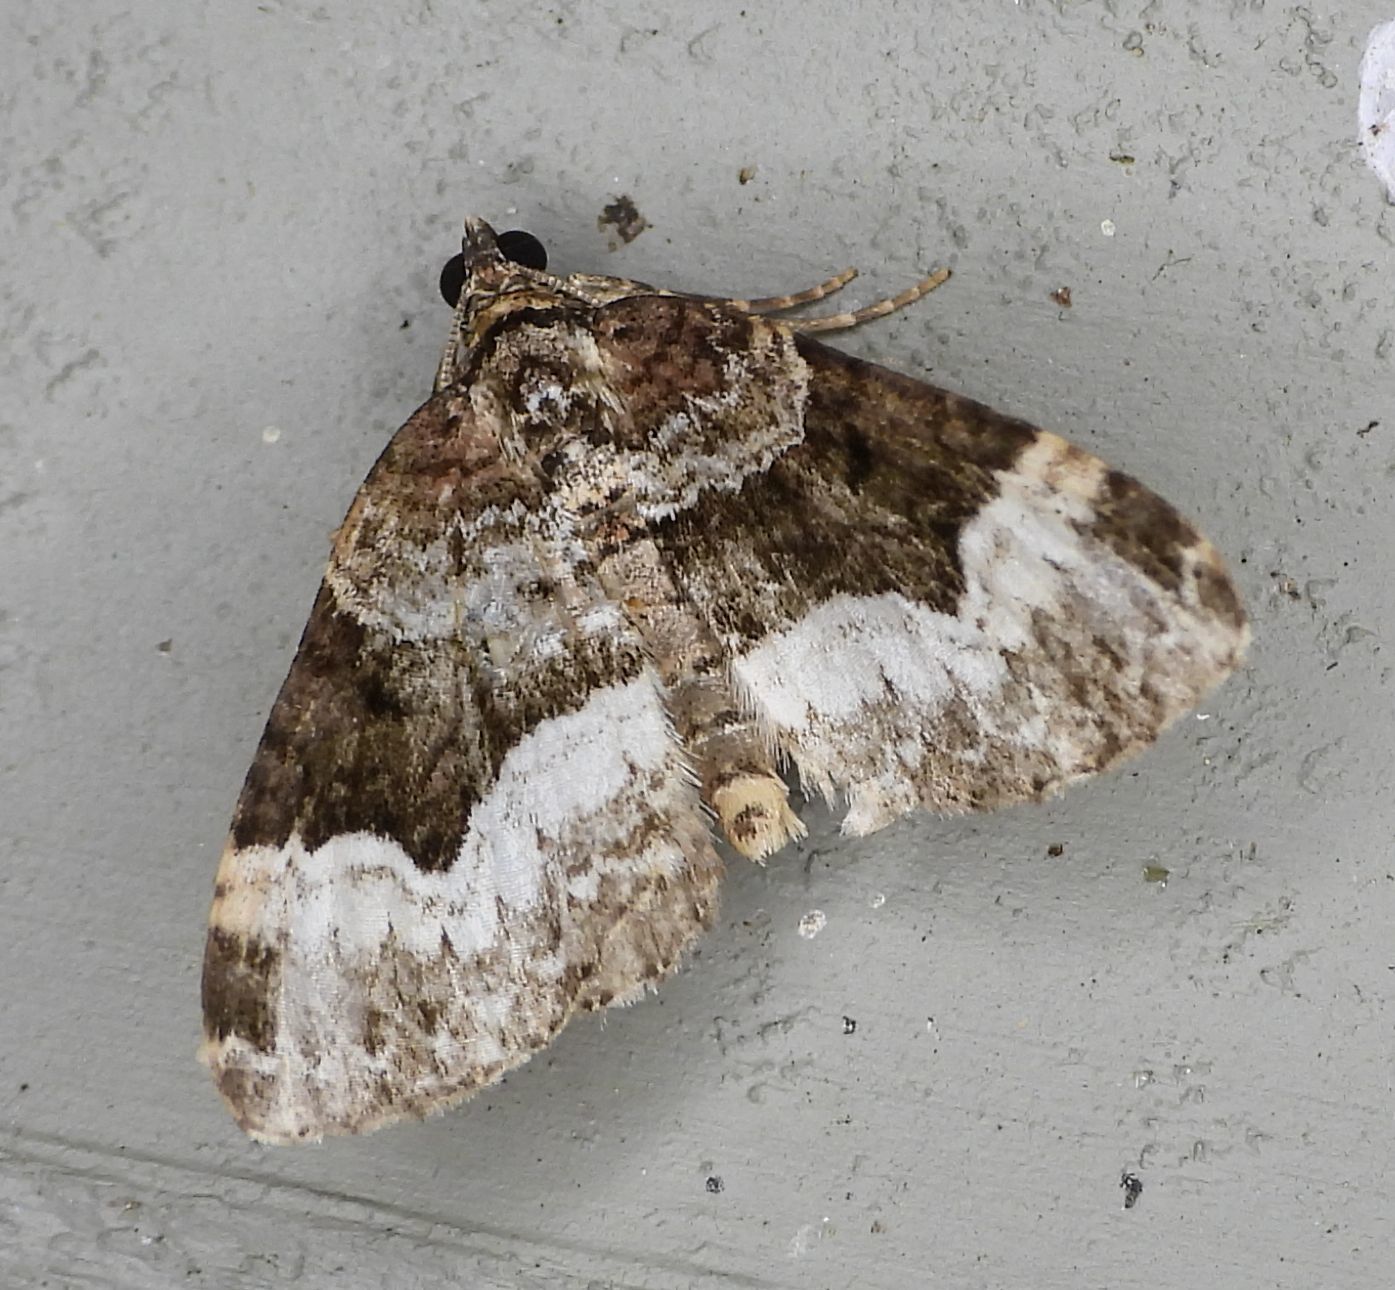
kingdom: Animalia
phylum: Arthropoda
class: Insecta
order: Lepidoptera
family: Geometridae
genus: Euphyia
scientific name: Euphyia intermediata
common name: Sharp-angled carpet
